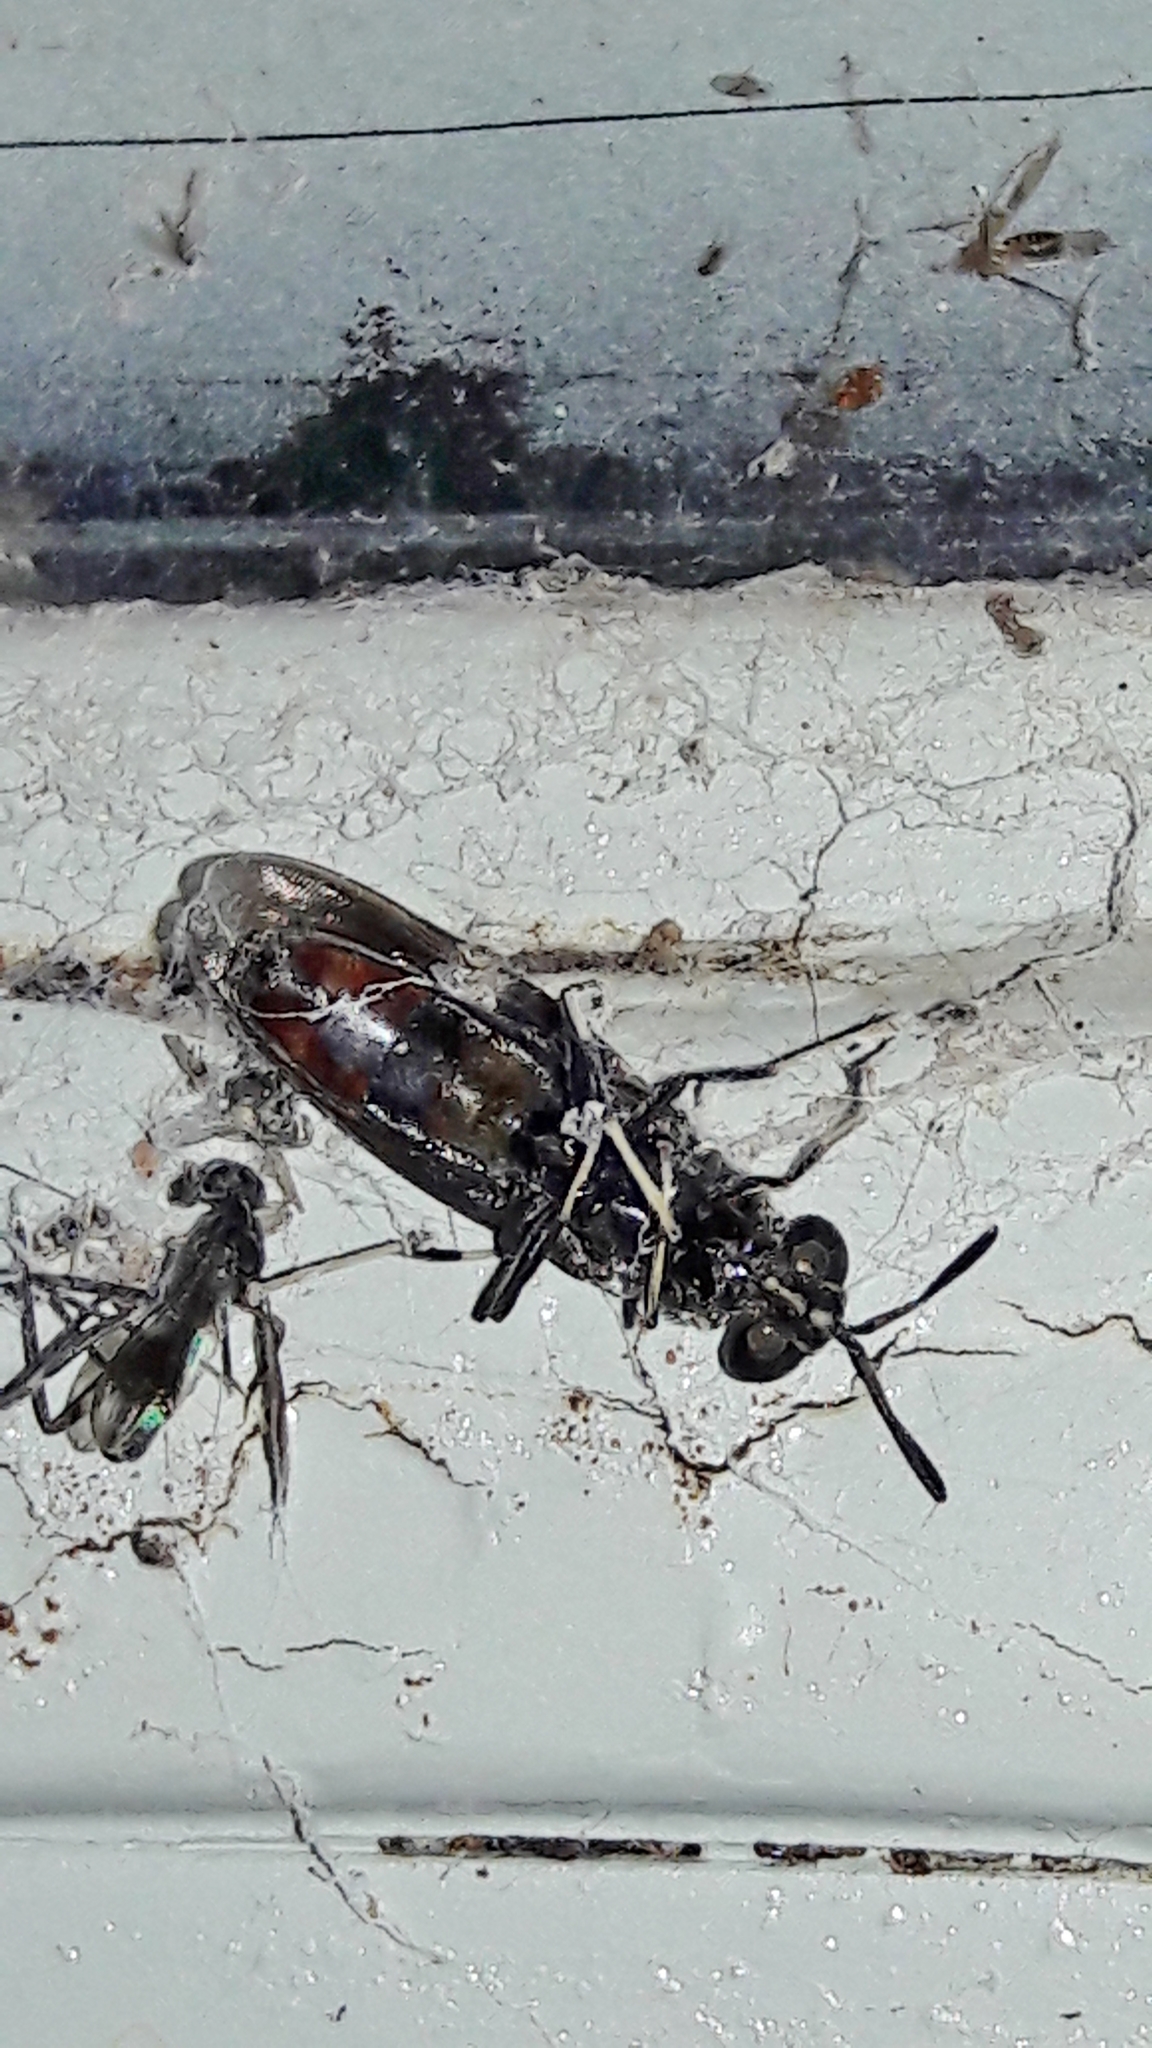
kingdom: Animalia
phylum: Arthropoda
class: Insecta
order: Diptera
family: Stratiomyidae
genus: Hermetia
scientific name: Hermetia illucens
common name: Black soldier fly
